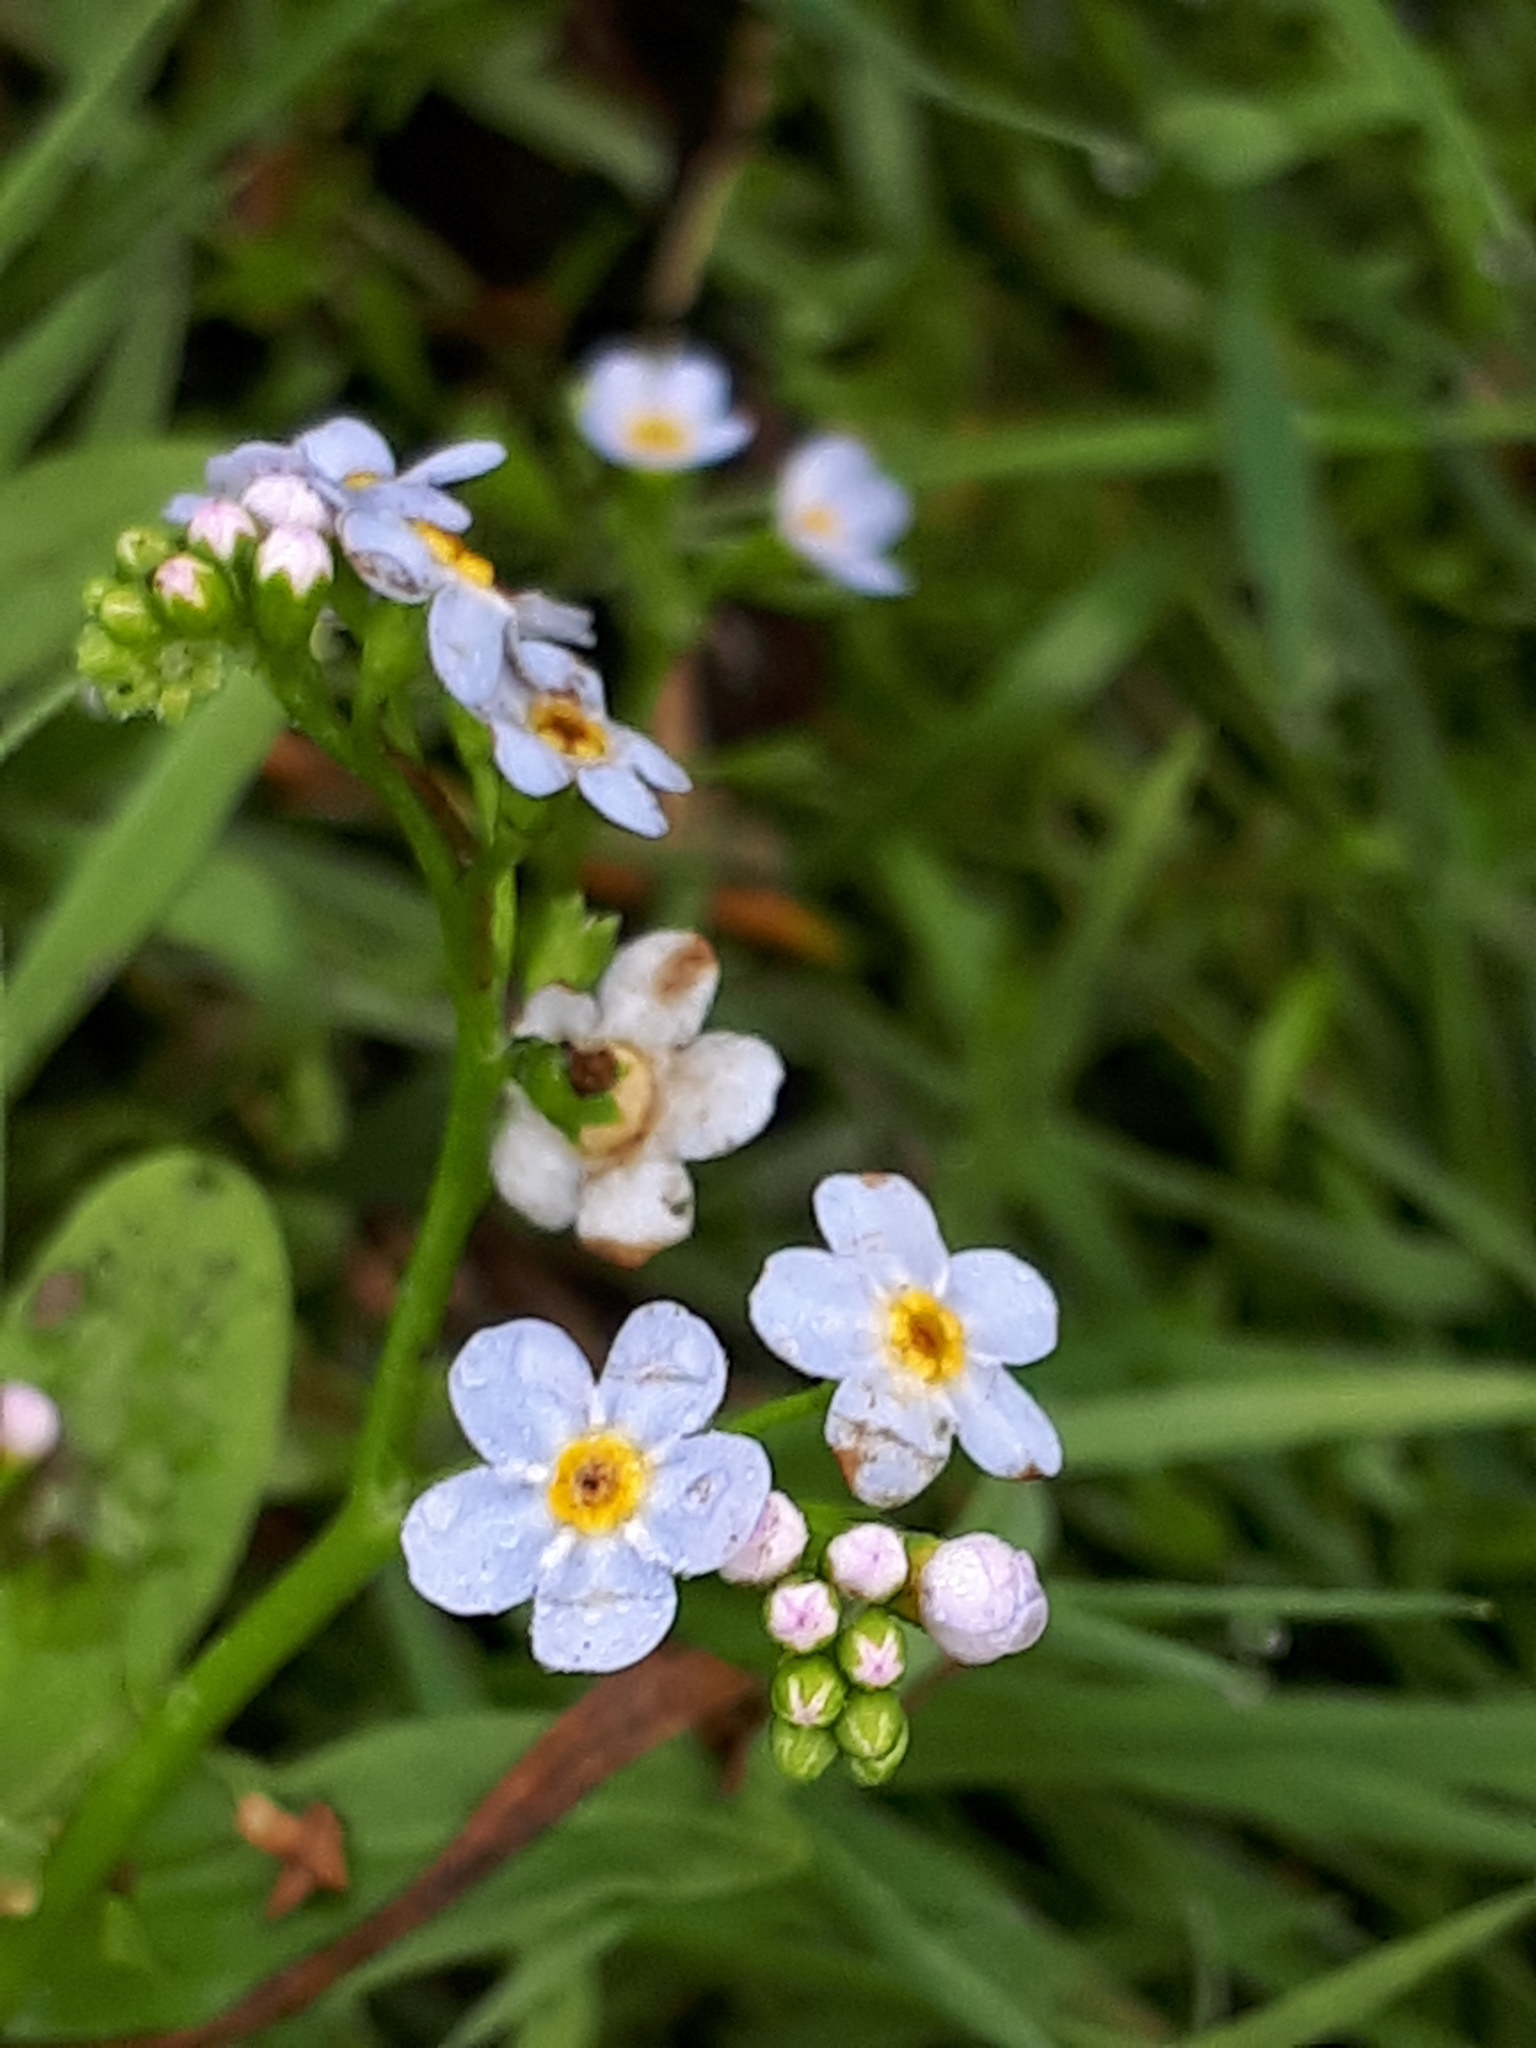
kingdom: Plantae
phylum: Tracheophyta
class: Magnoliopsida
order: Boraginales
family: Boraginaceae
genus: Myosotis
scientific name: Myosotis scorpioides
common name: Water forget-me-not
